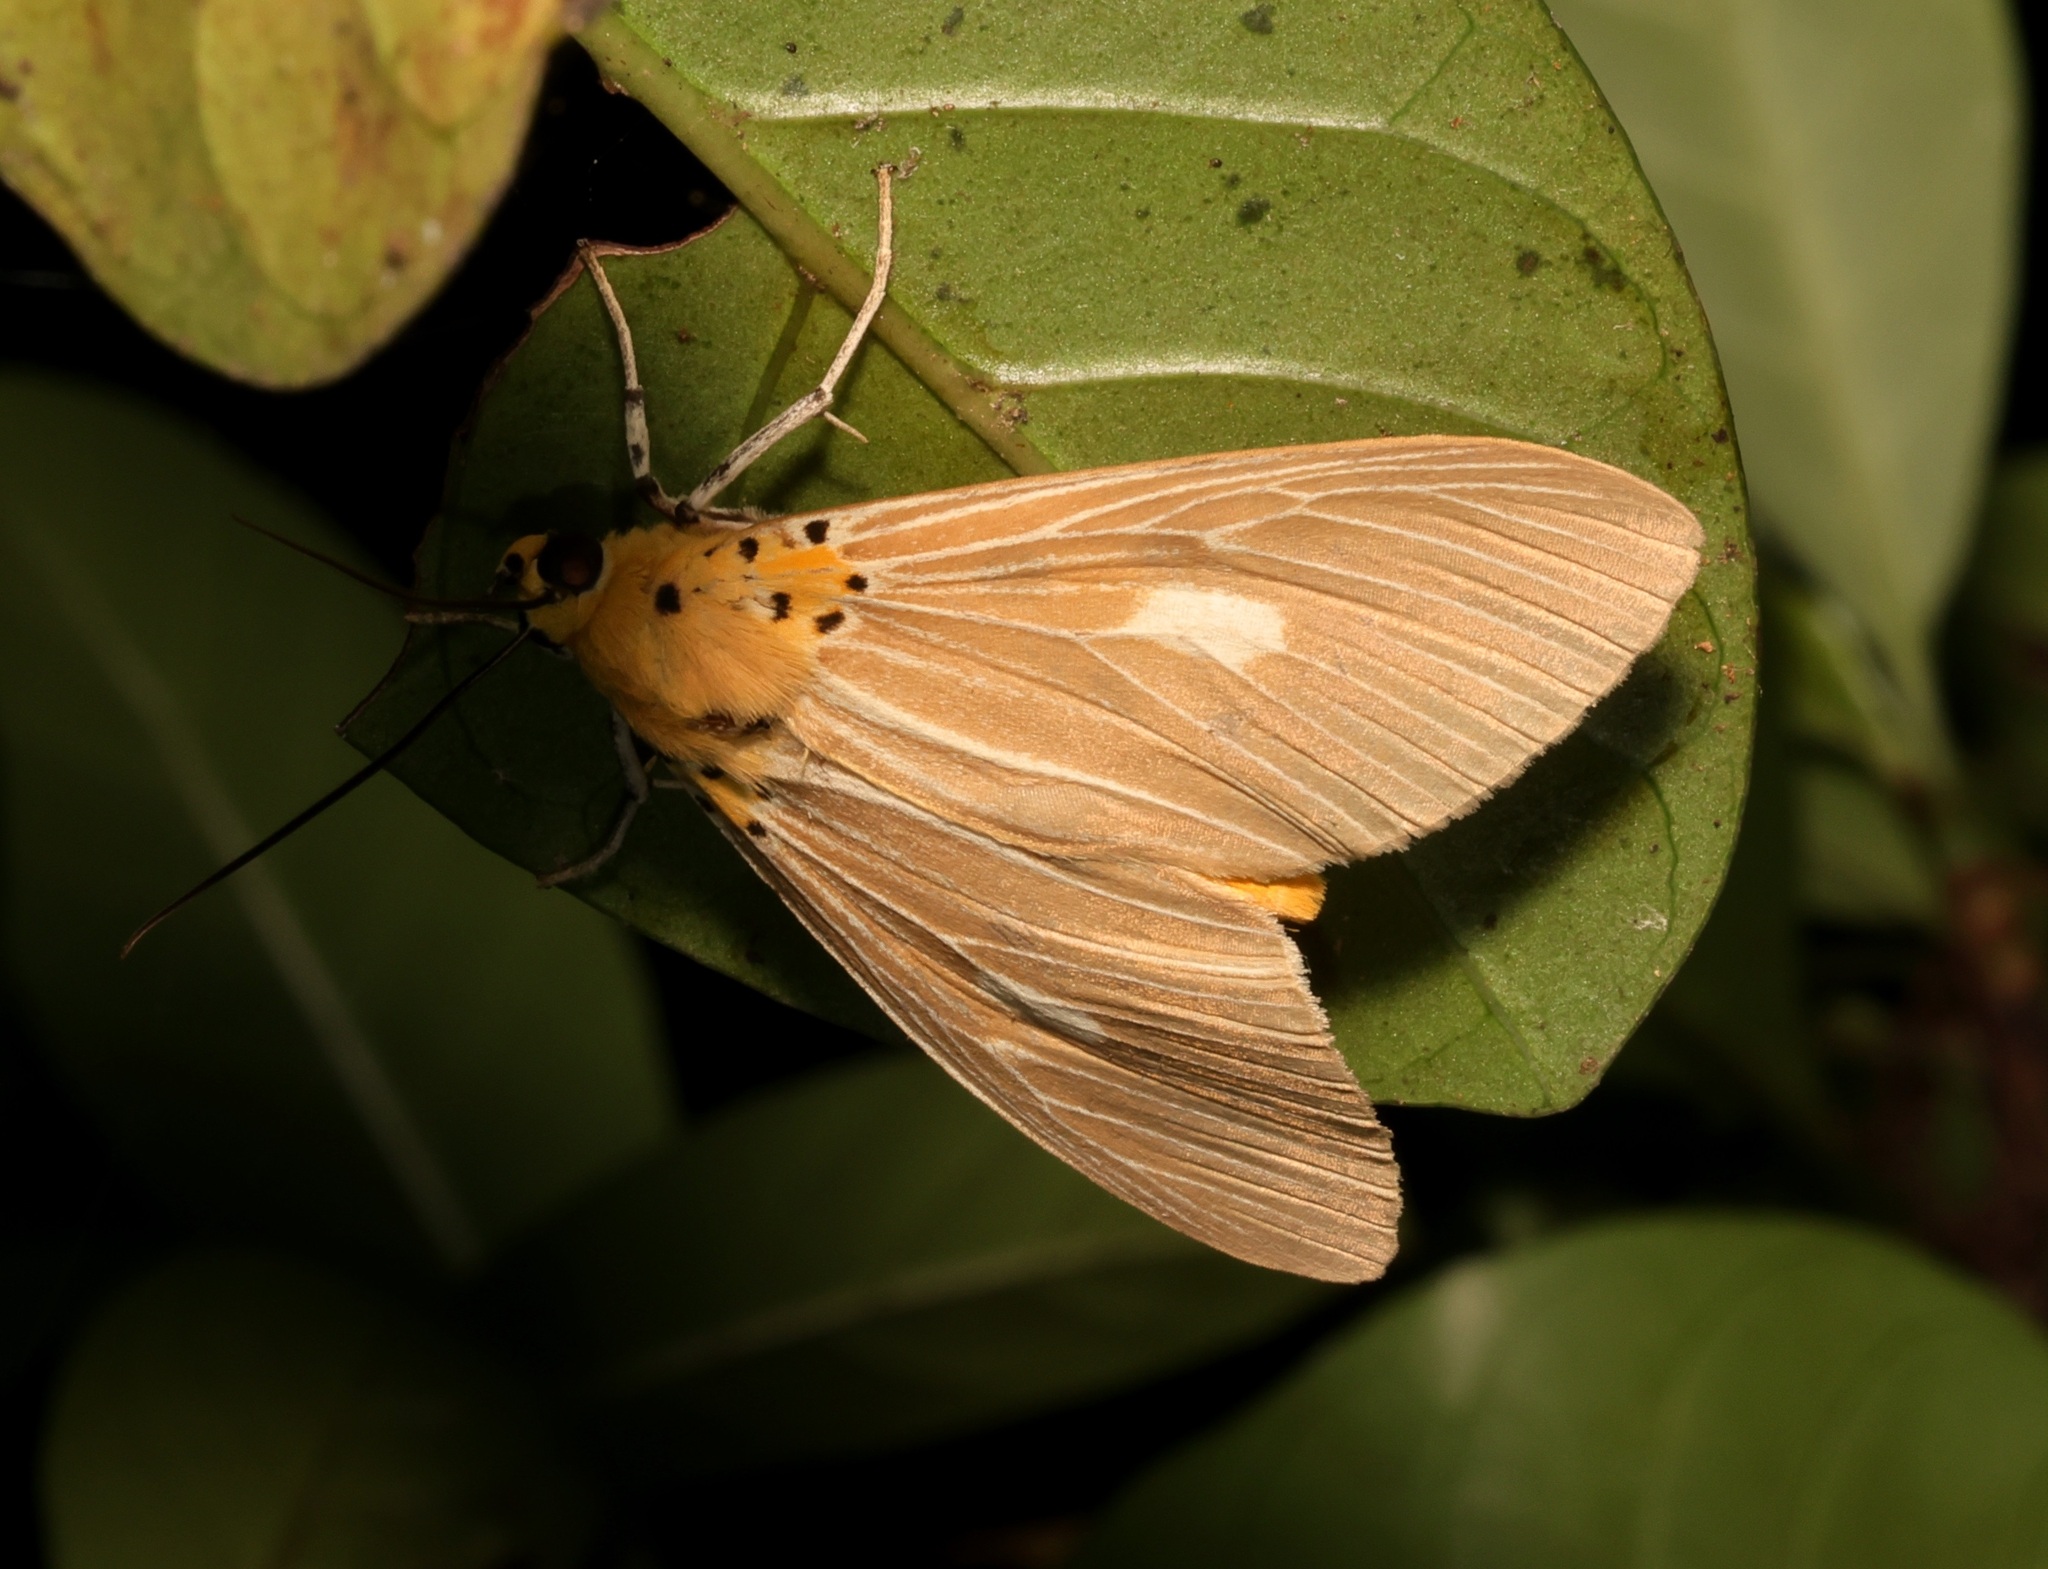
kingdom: Animalia
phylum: Arthropoda
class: Insecta
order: Lepidoptera
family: Erebidae
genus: Asota
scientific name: Asota plaginota
